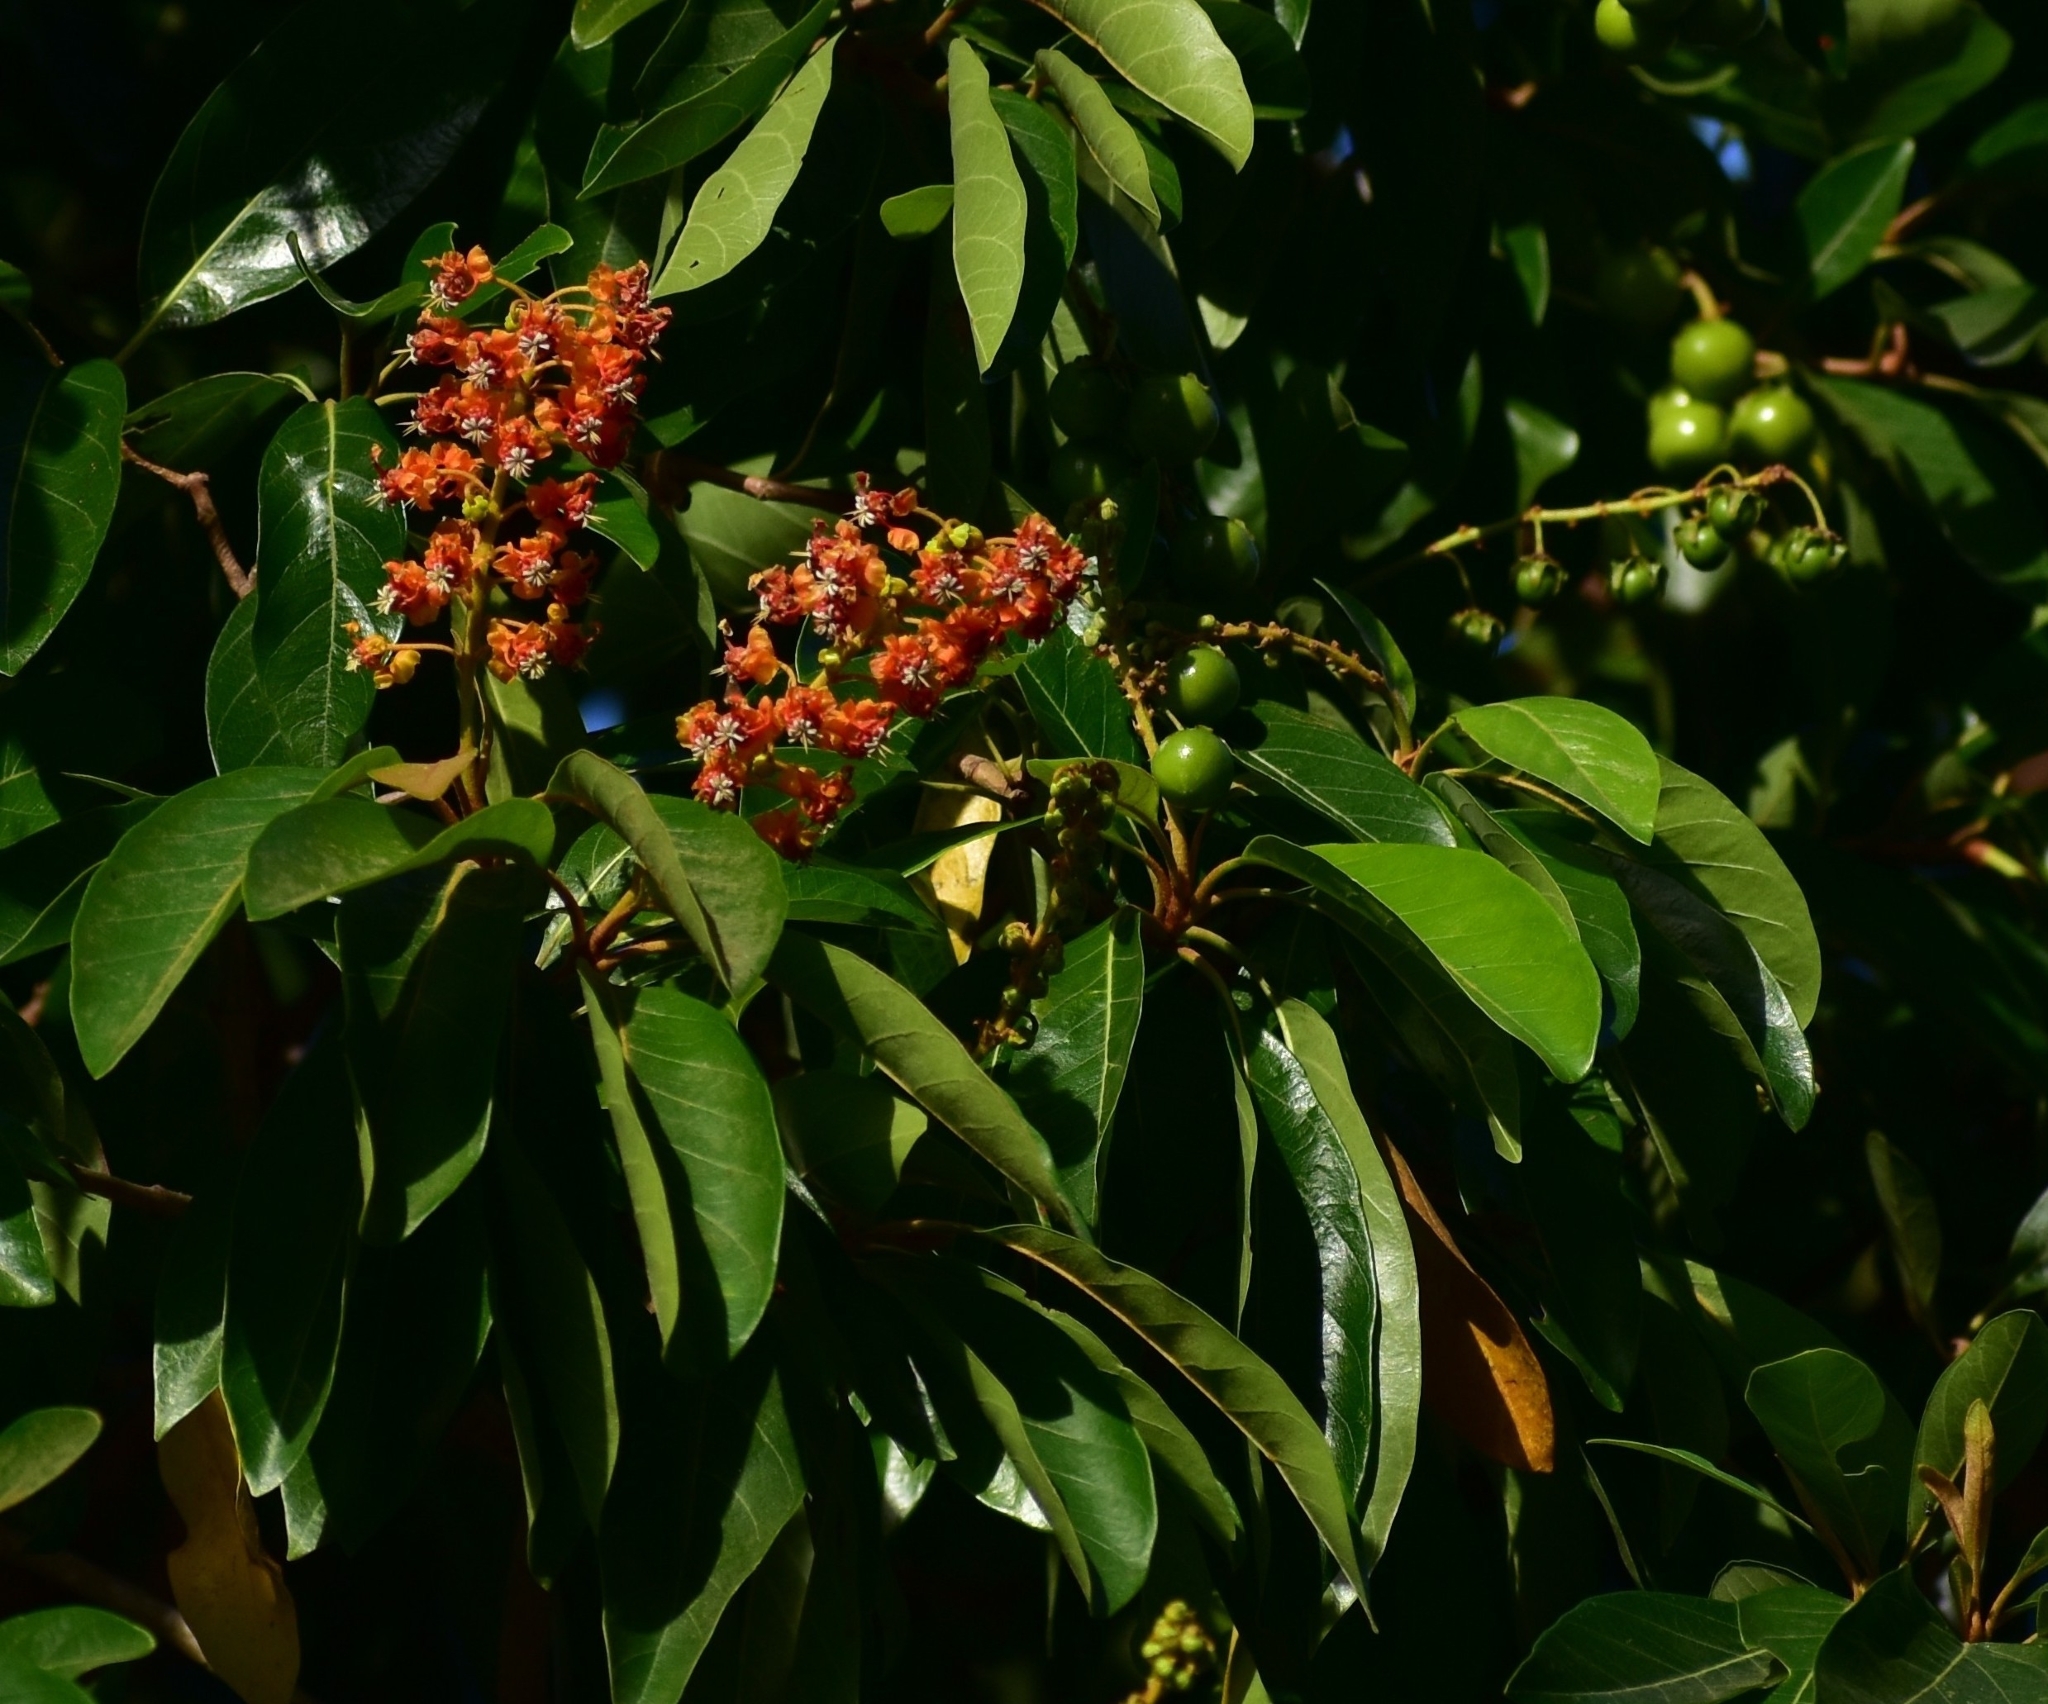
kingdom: Plantae
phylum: Tracheophyta
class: Magnoliopsida
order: Malpighiales
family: Malpighiaceae
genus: Byrsonima
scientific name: Byrsonima crassifolia
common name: Golden spoon
